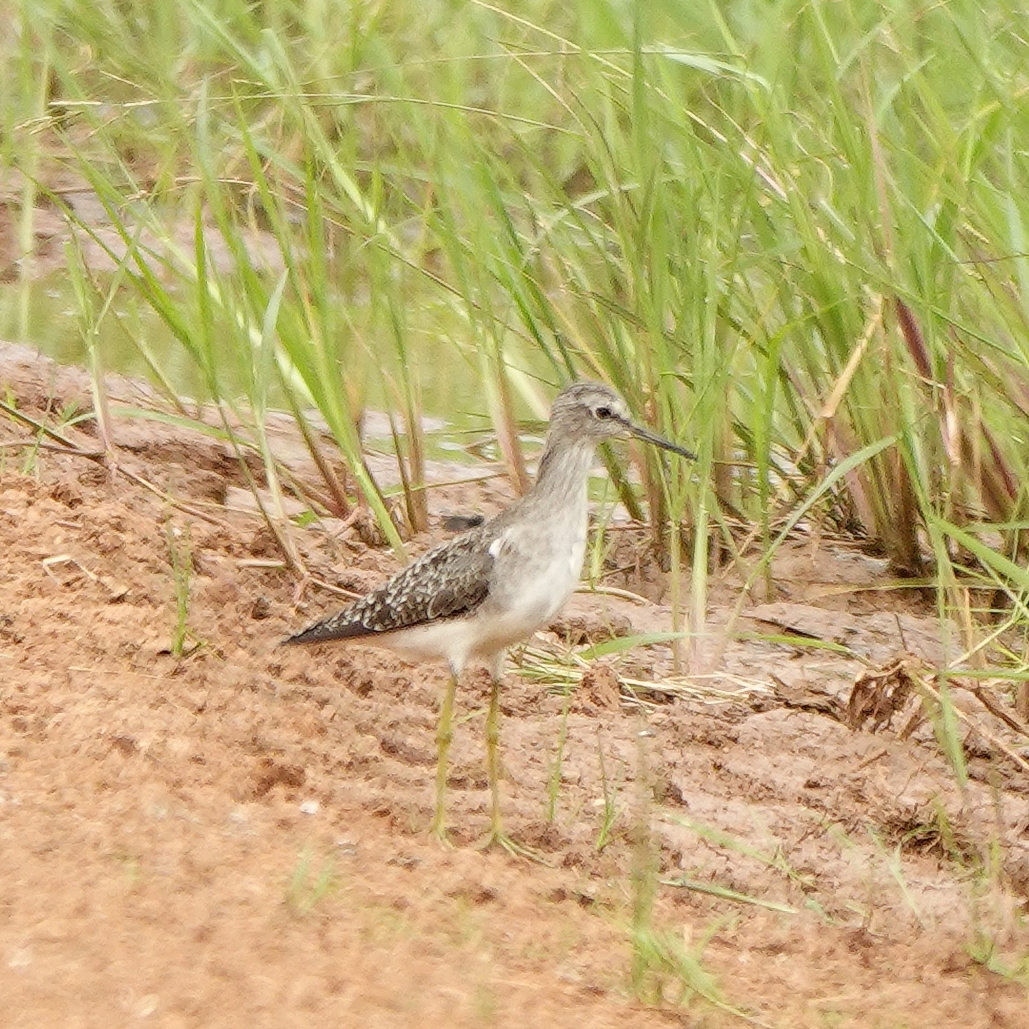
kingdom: Animalia
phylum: Chordata
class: Aves
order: Charadriiformes
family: Scolopacidae
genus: Tringa
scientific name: Tringa glareola
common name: Wood sandpiper
